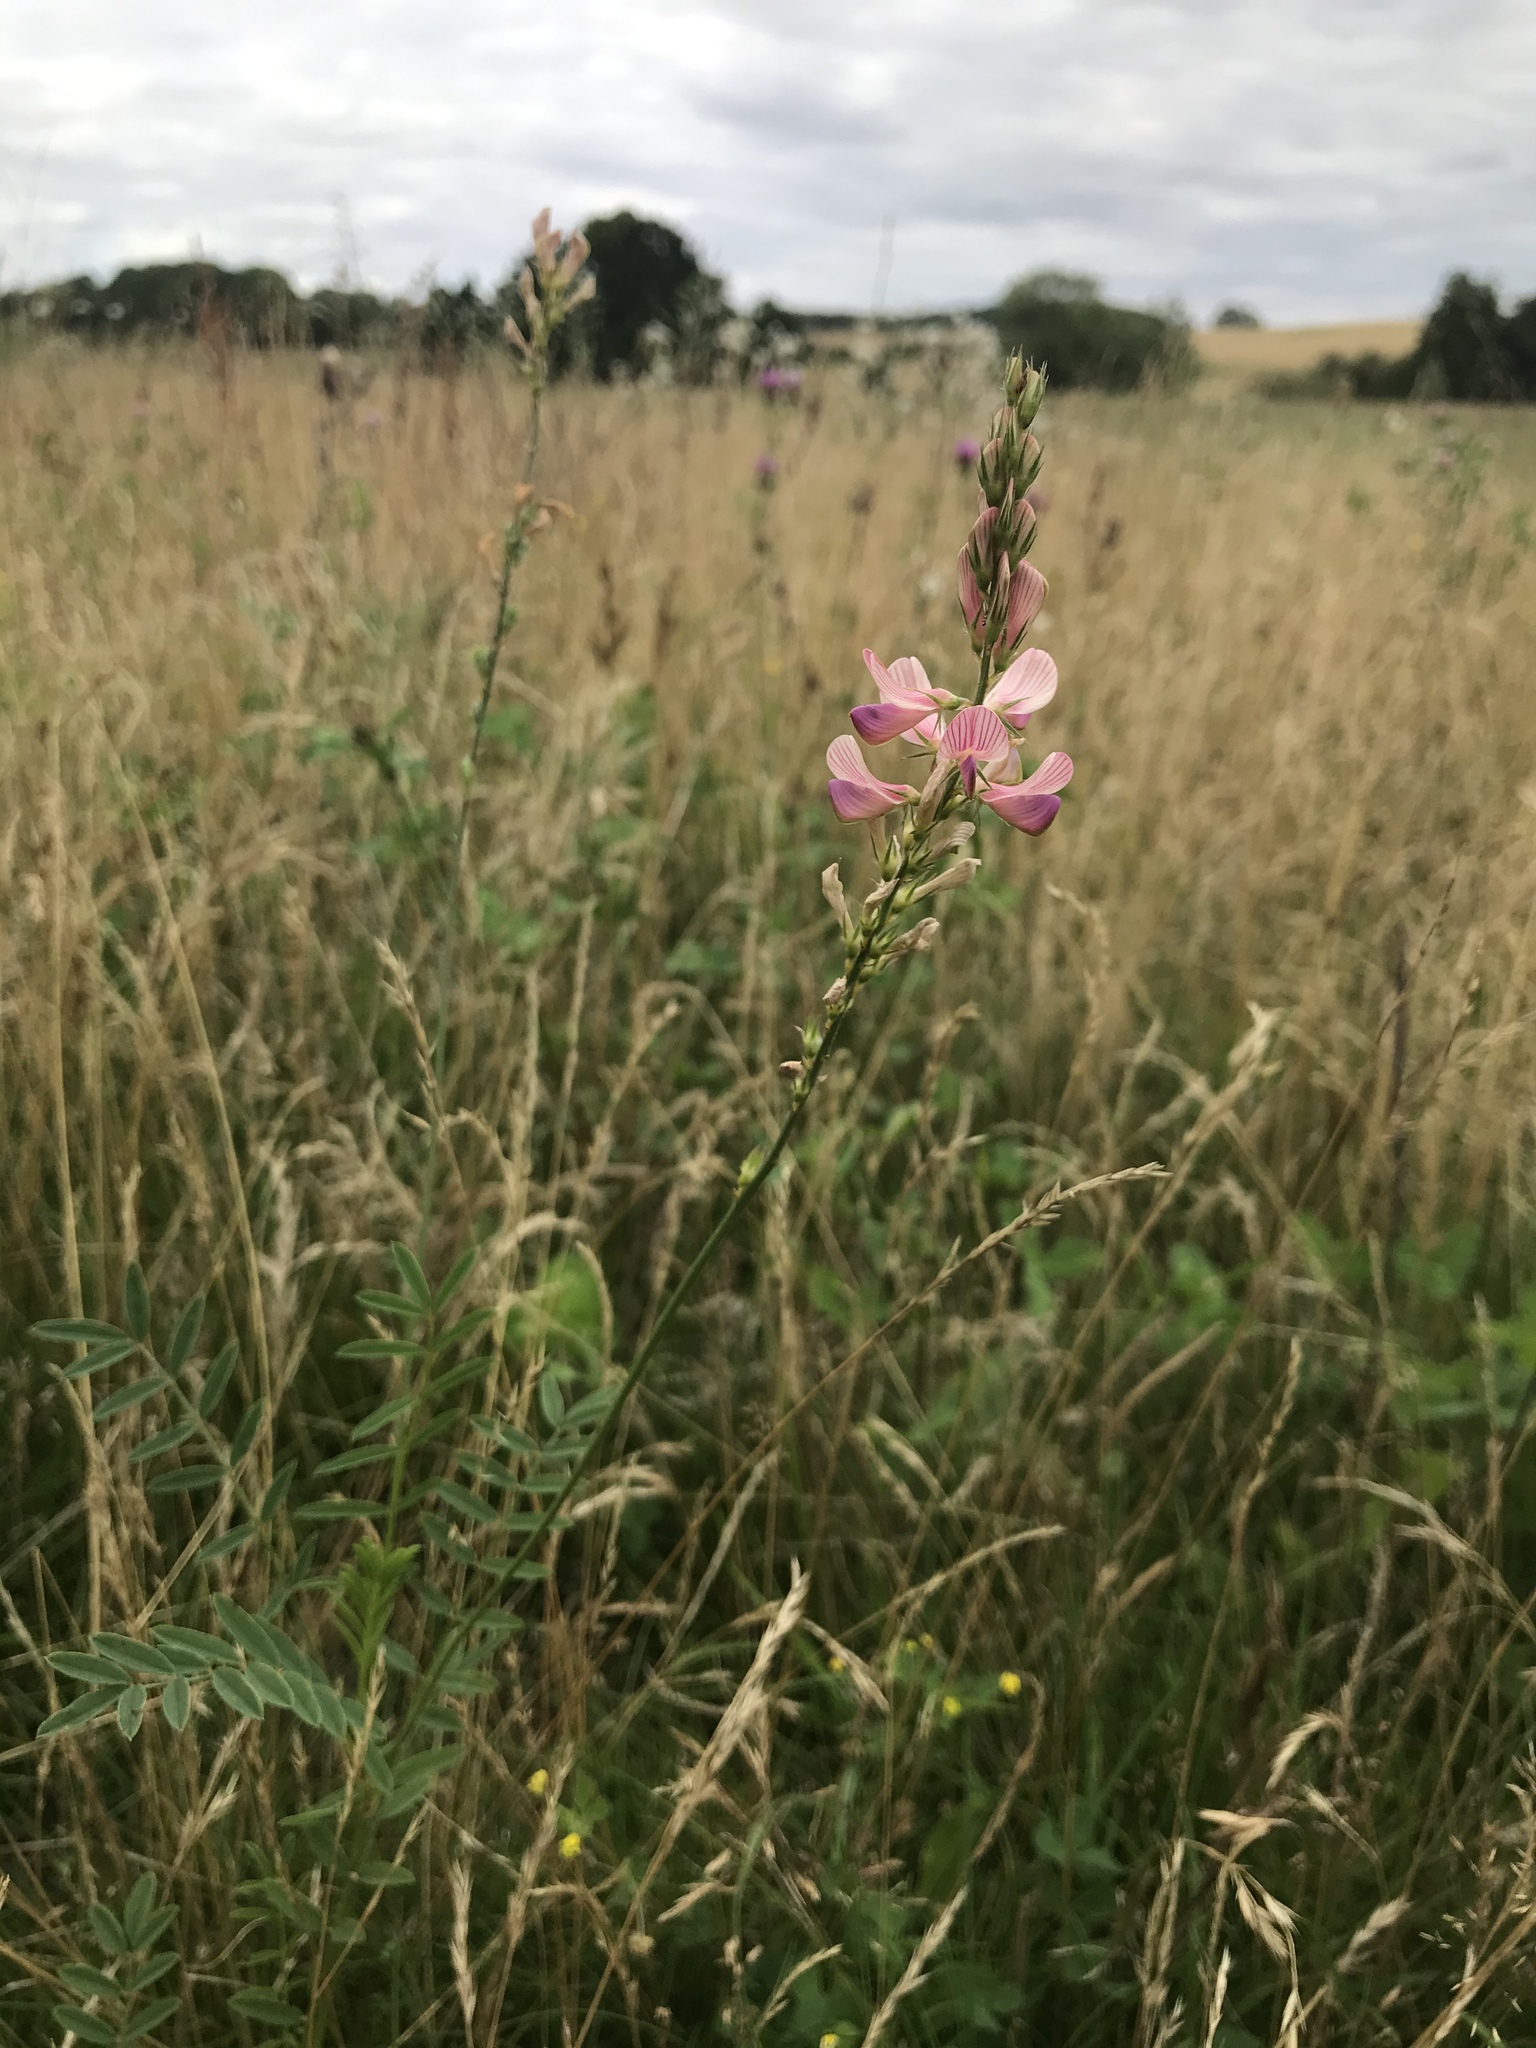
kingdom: Plantae
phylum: Tracheophyta
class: Magnoliopsida
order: Fabales
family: Fabaceae
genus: Onobrychis
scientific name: Onobrychis viciifolia
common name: Sainfoin
